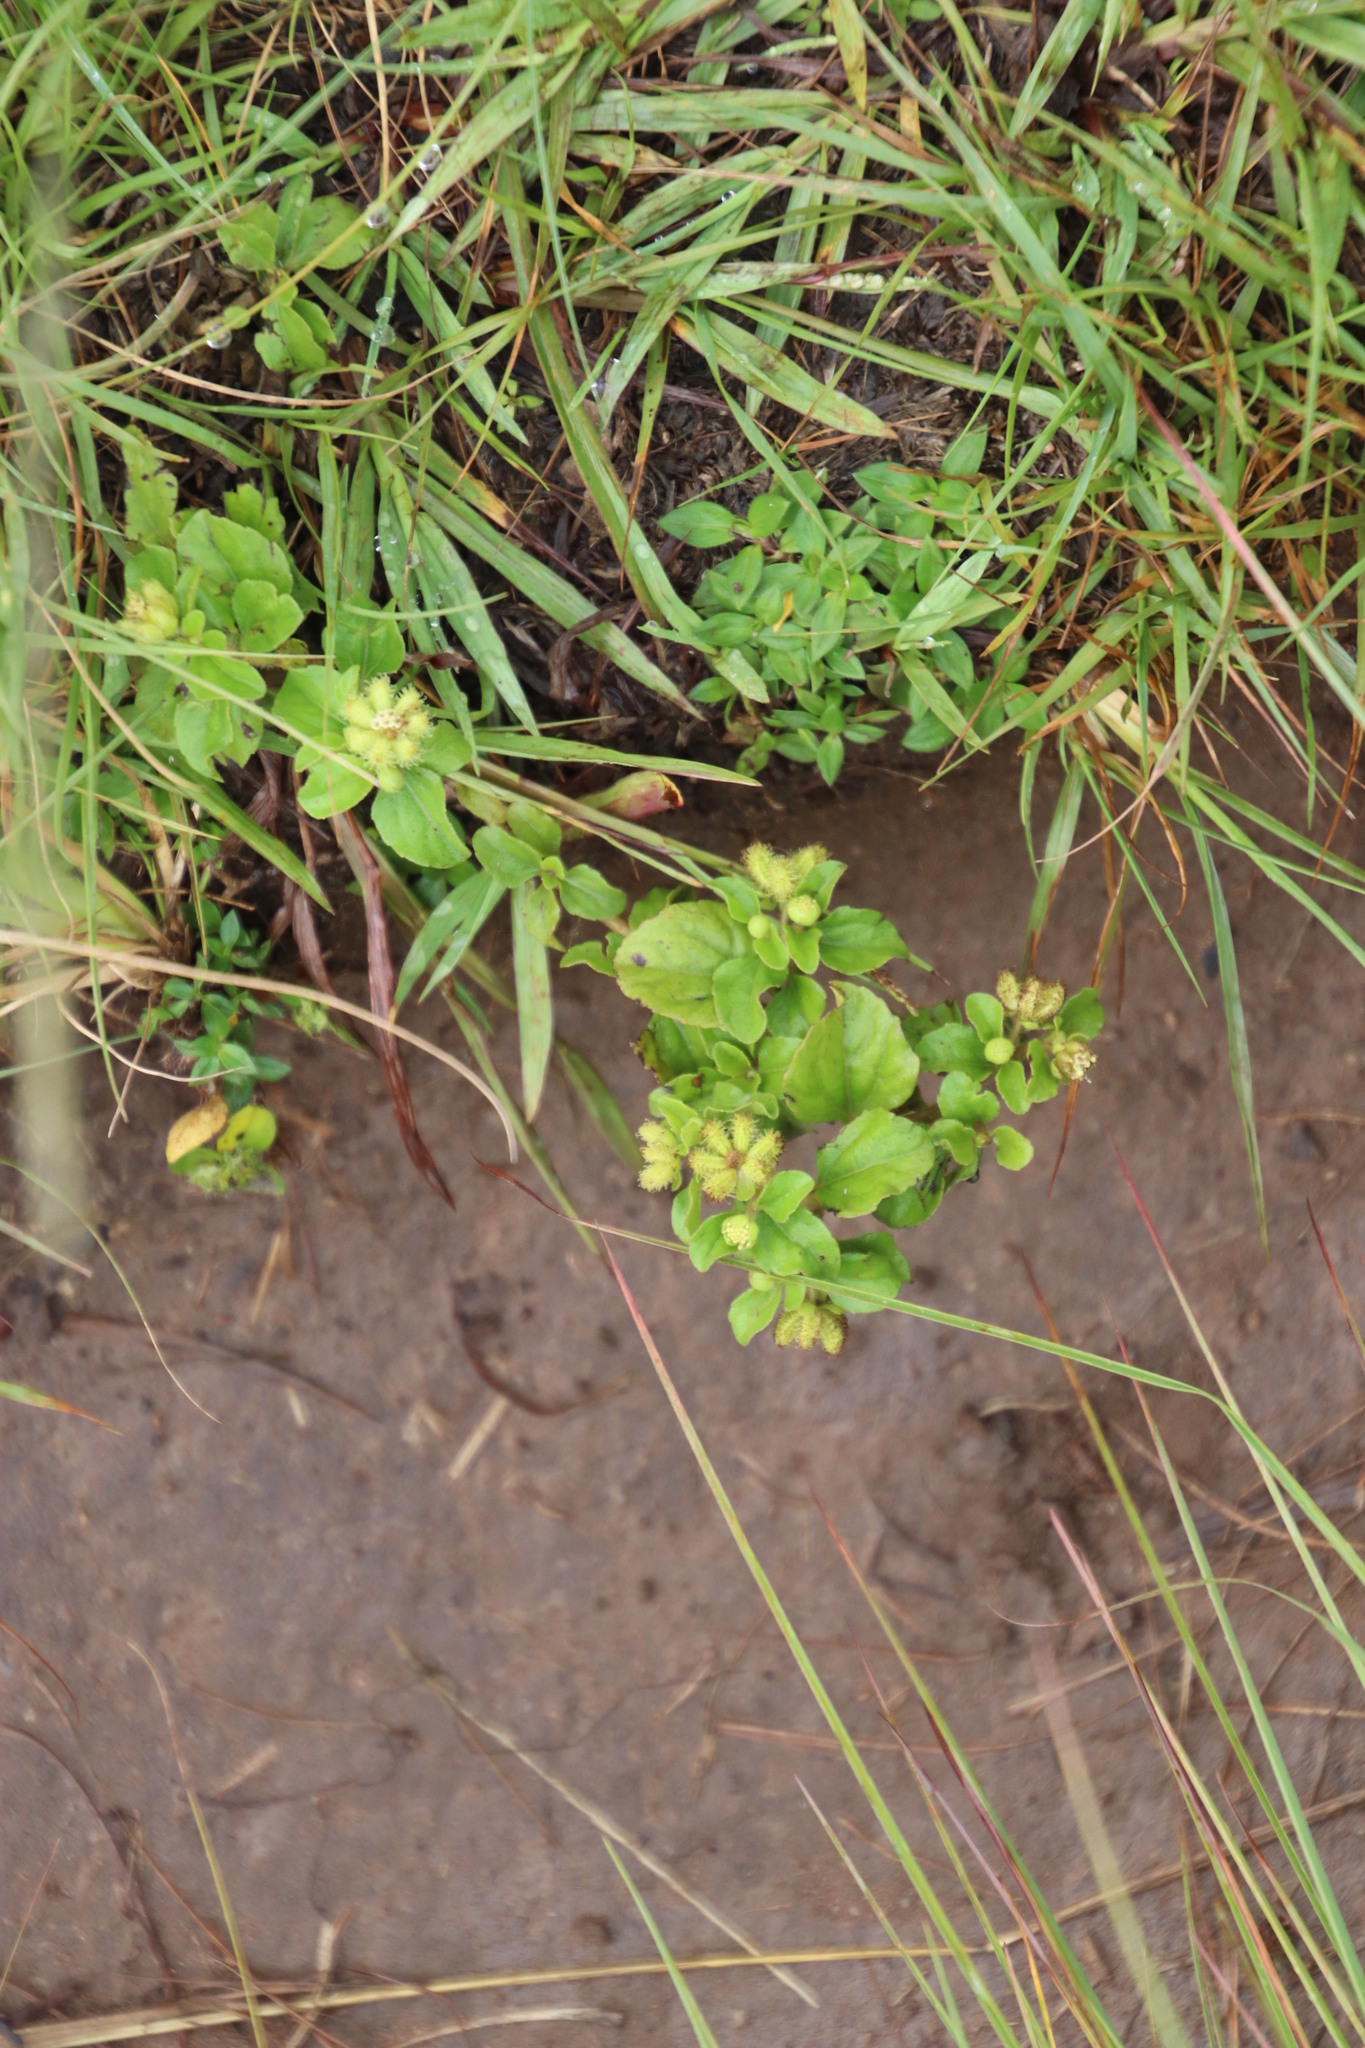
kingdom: Plantae
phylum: Tracheophyta
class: Magnoliopsida
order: Asterales
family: Asteraceae
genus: Acanthospermum
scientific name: Acanthospermum australe
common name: Paraguayan starbur
